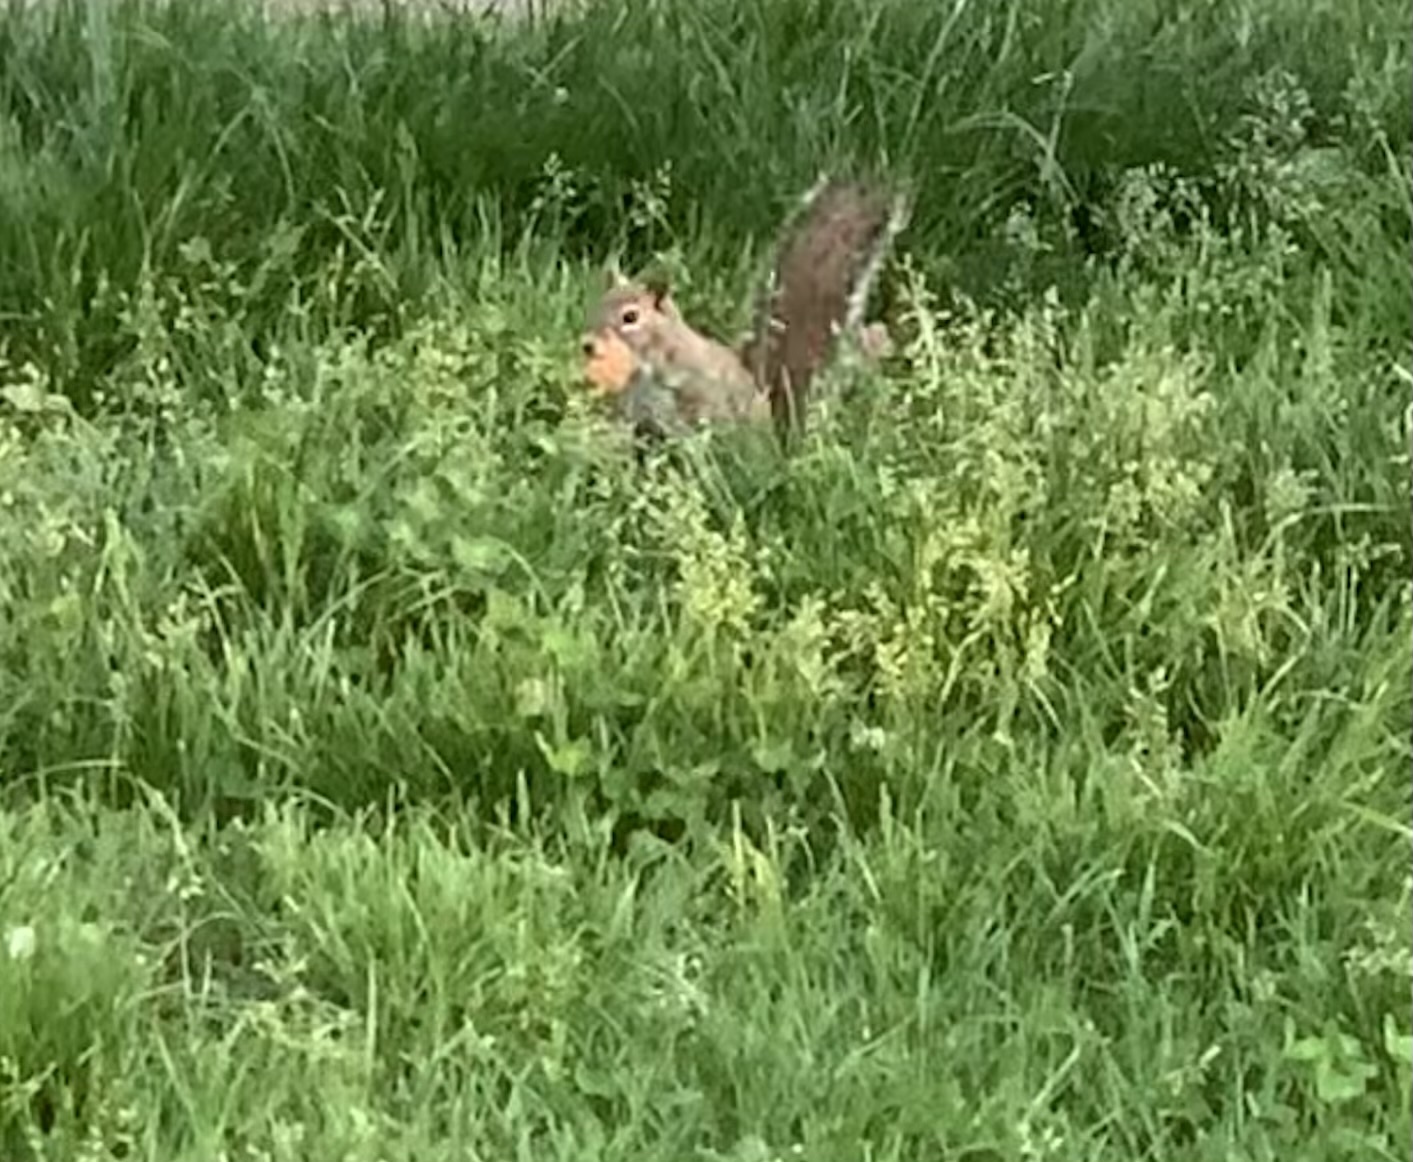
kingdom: Animalia
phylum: Chordata
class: Mammalia
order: Rodentia
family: Sciuridae
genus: Sciurus
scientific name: Sciurus carolinensis
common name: Eastern gray squirrel
